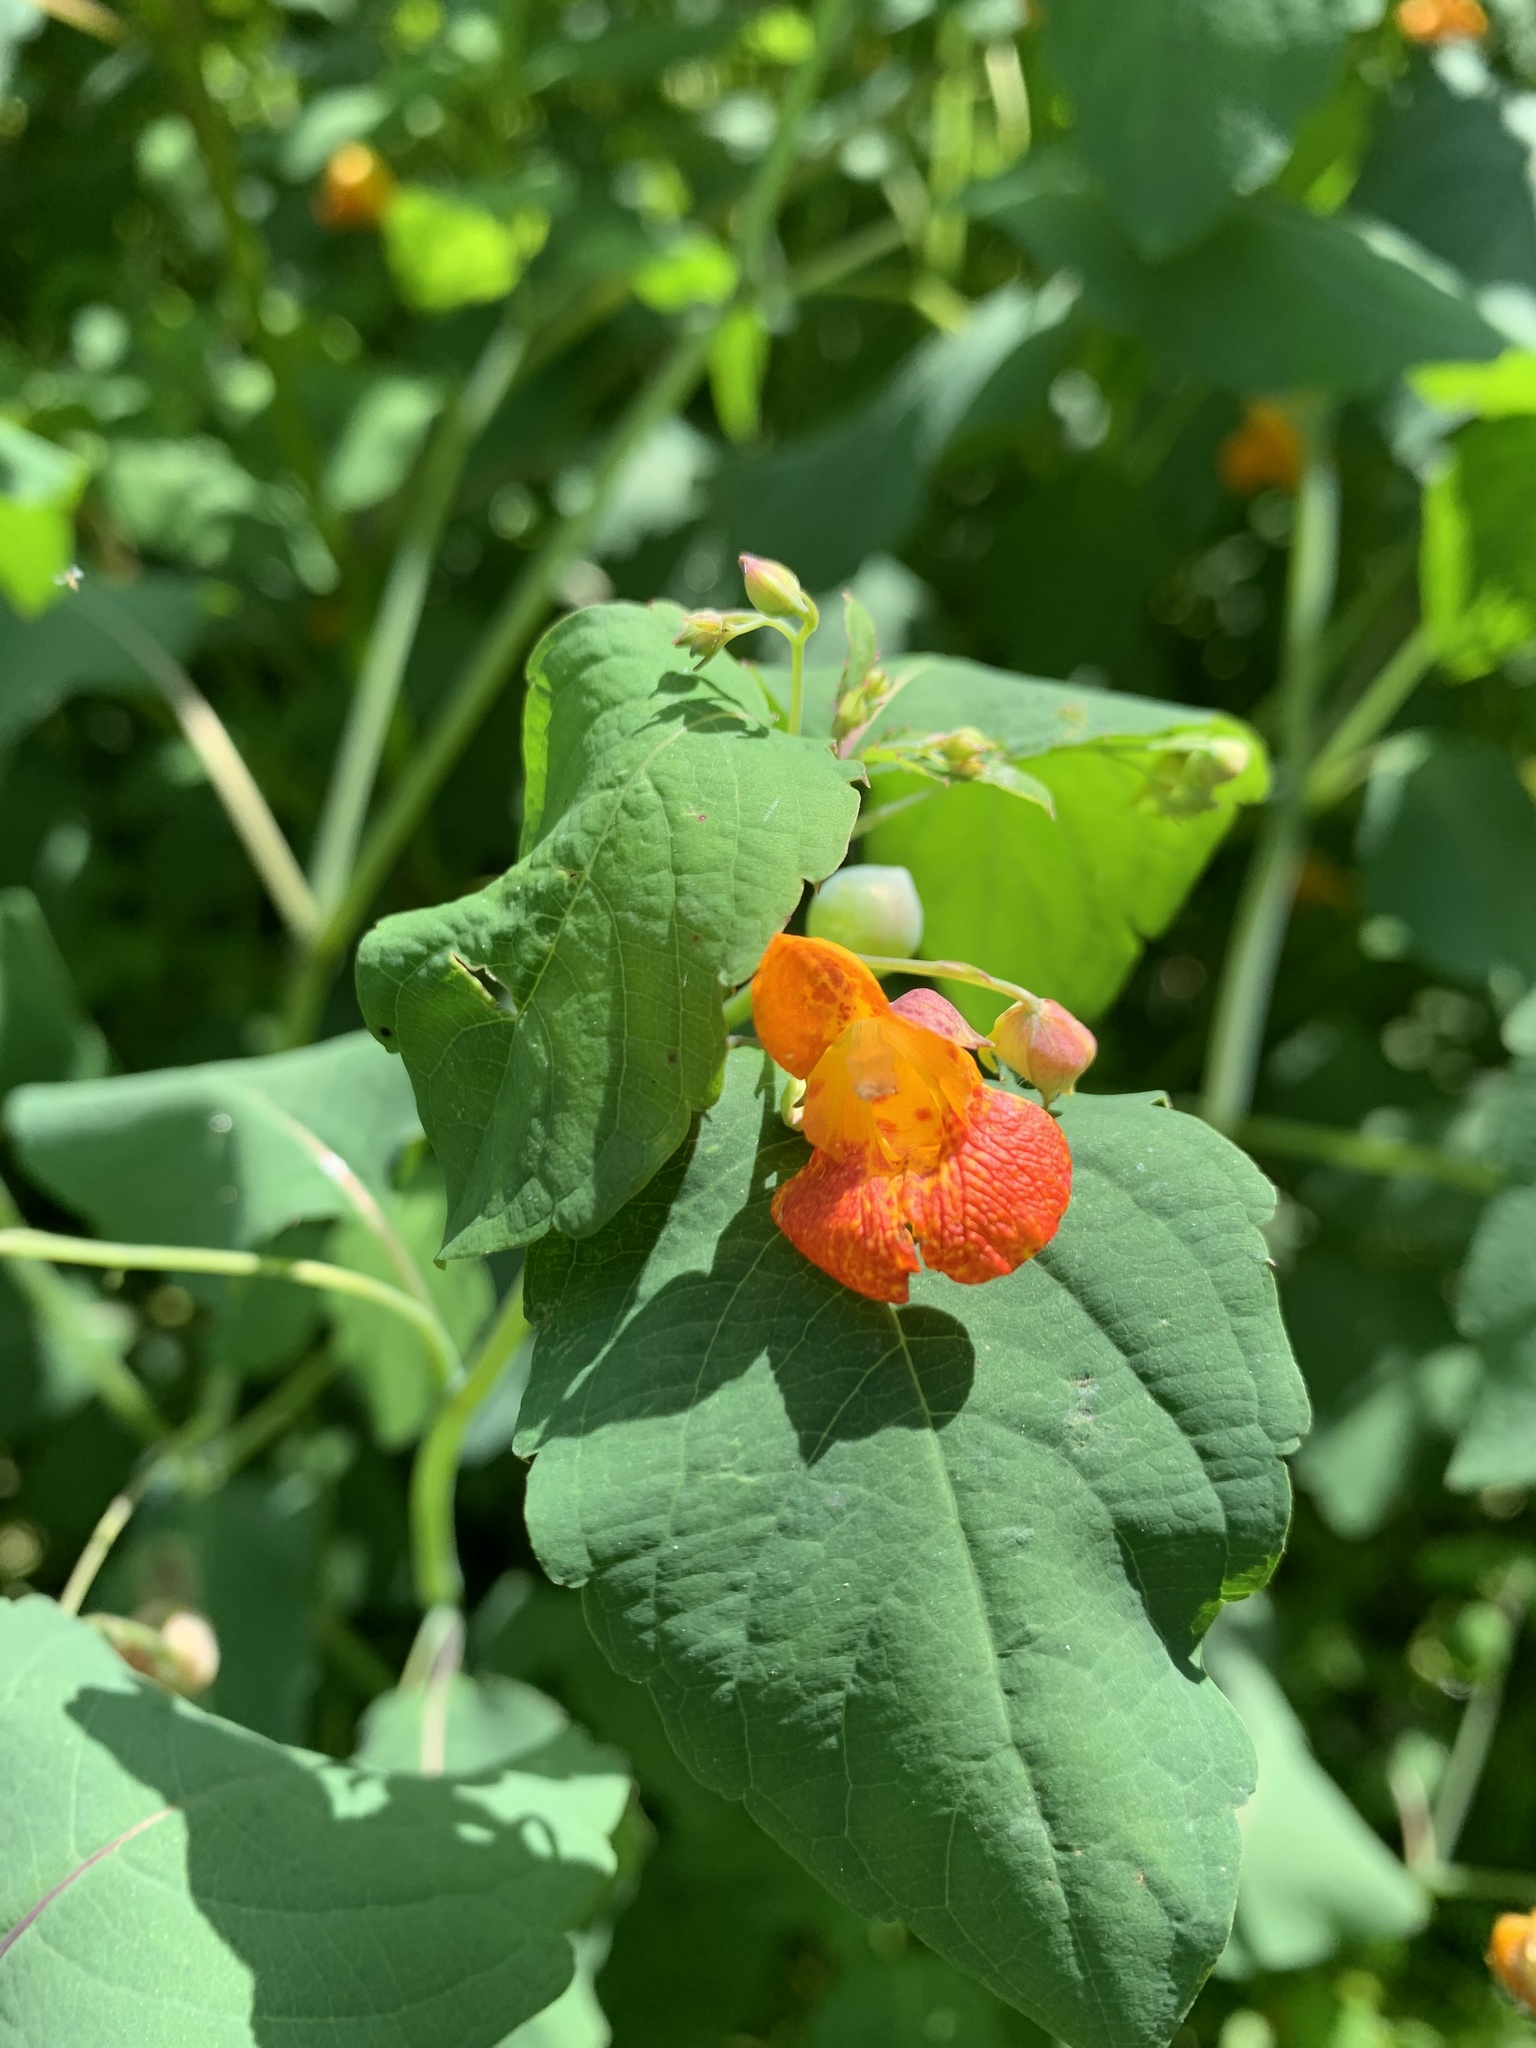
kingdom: Plantae
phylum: Tracheophyta
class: Magnoliopsida
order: Ericales
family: Balsaminaceae
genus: Impatiens
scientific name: Impatiens capensis
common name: Orange balsam
